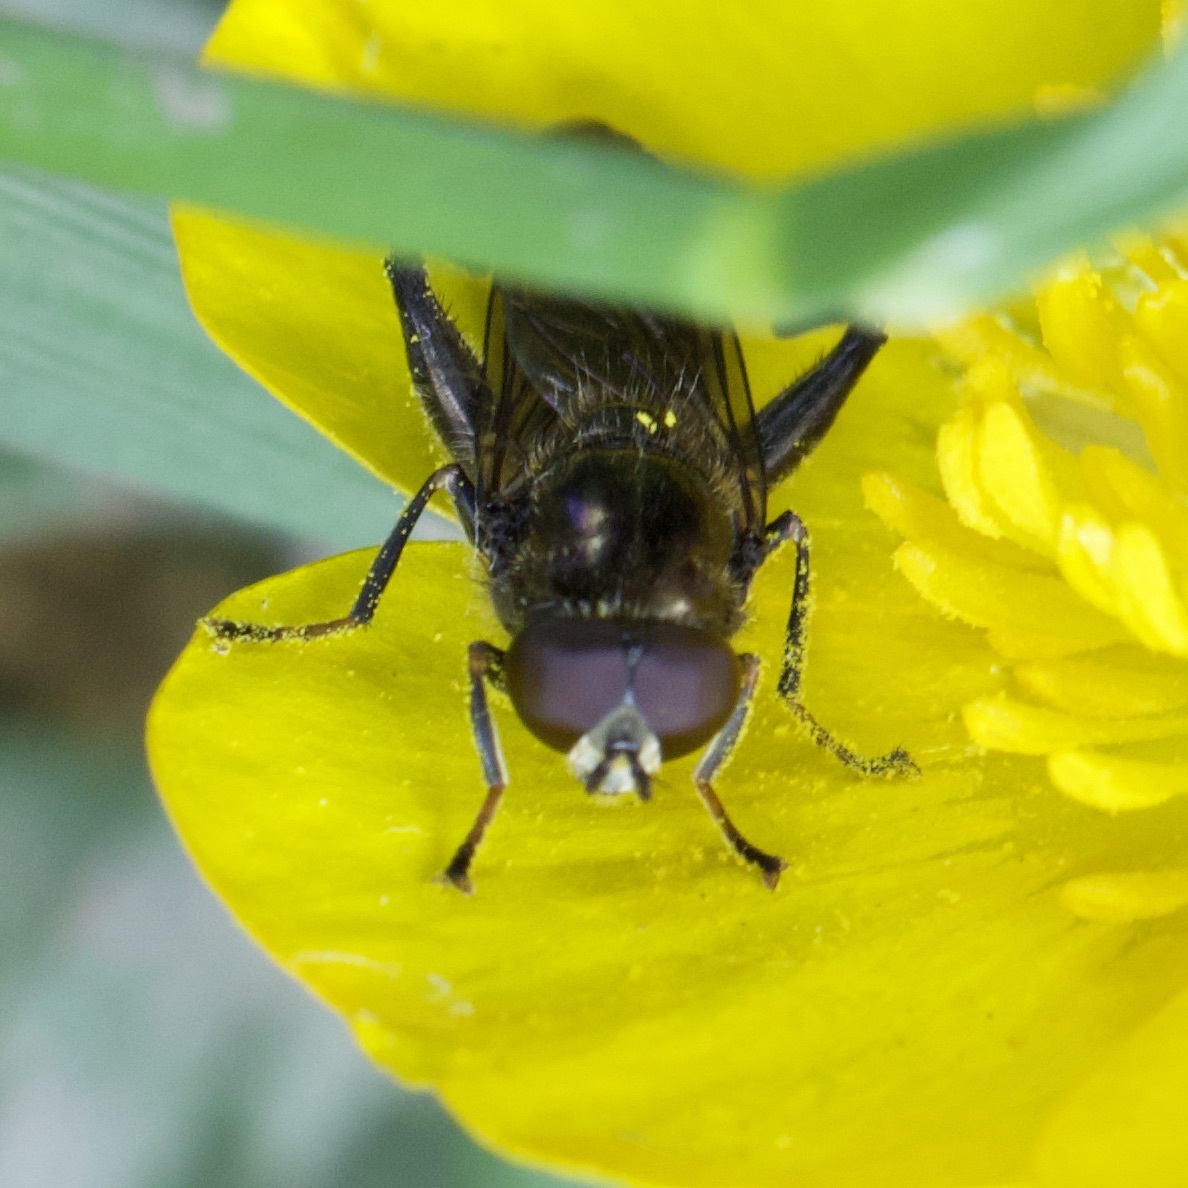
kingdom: Animalia
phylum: Arthropoda
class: Insecta
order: Diptera
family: Syrphidae
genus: Chalcosyrphus
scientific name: Chalcosyrphus nemorum
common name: Dusky-banded forest fly
